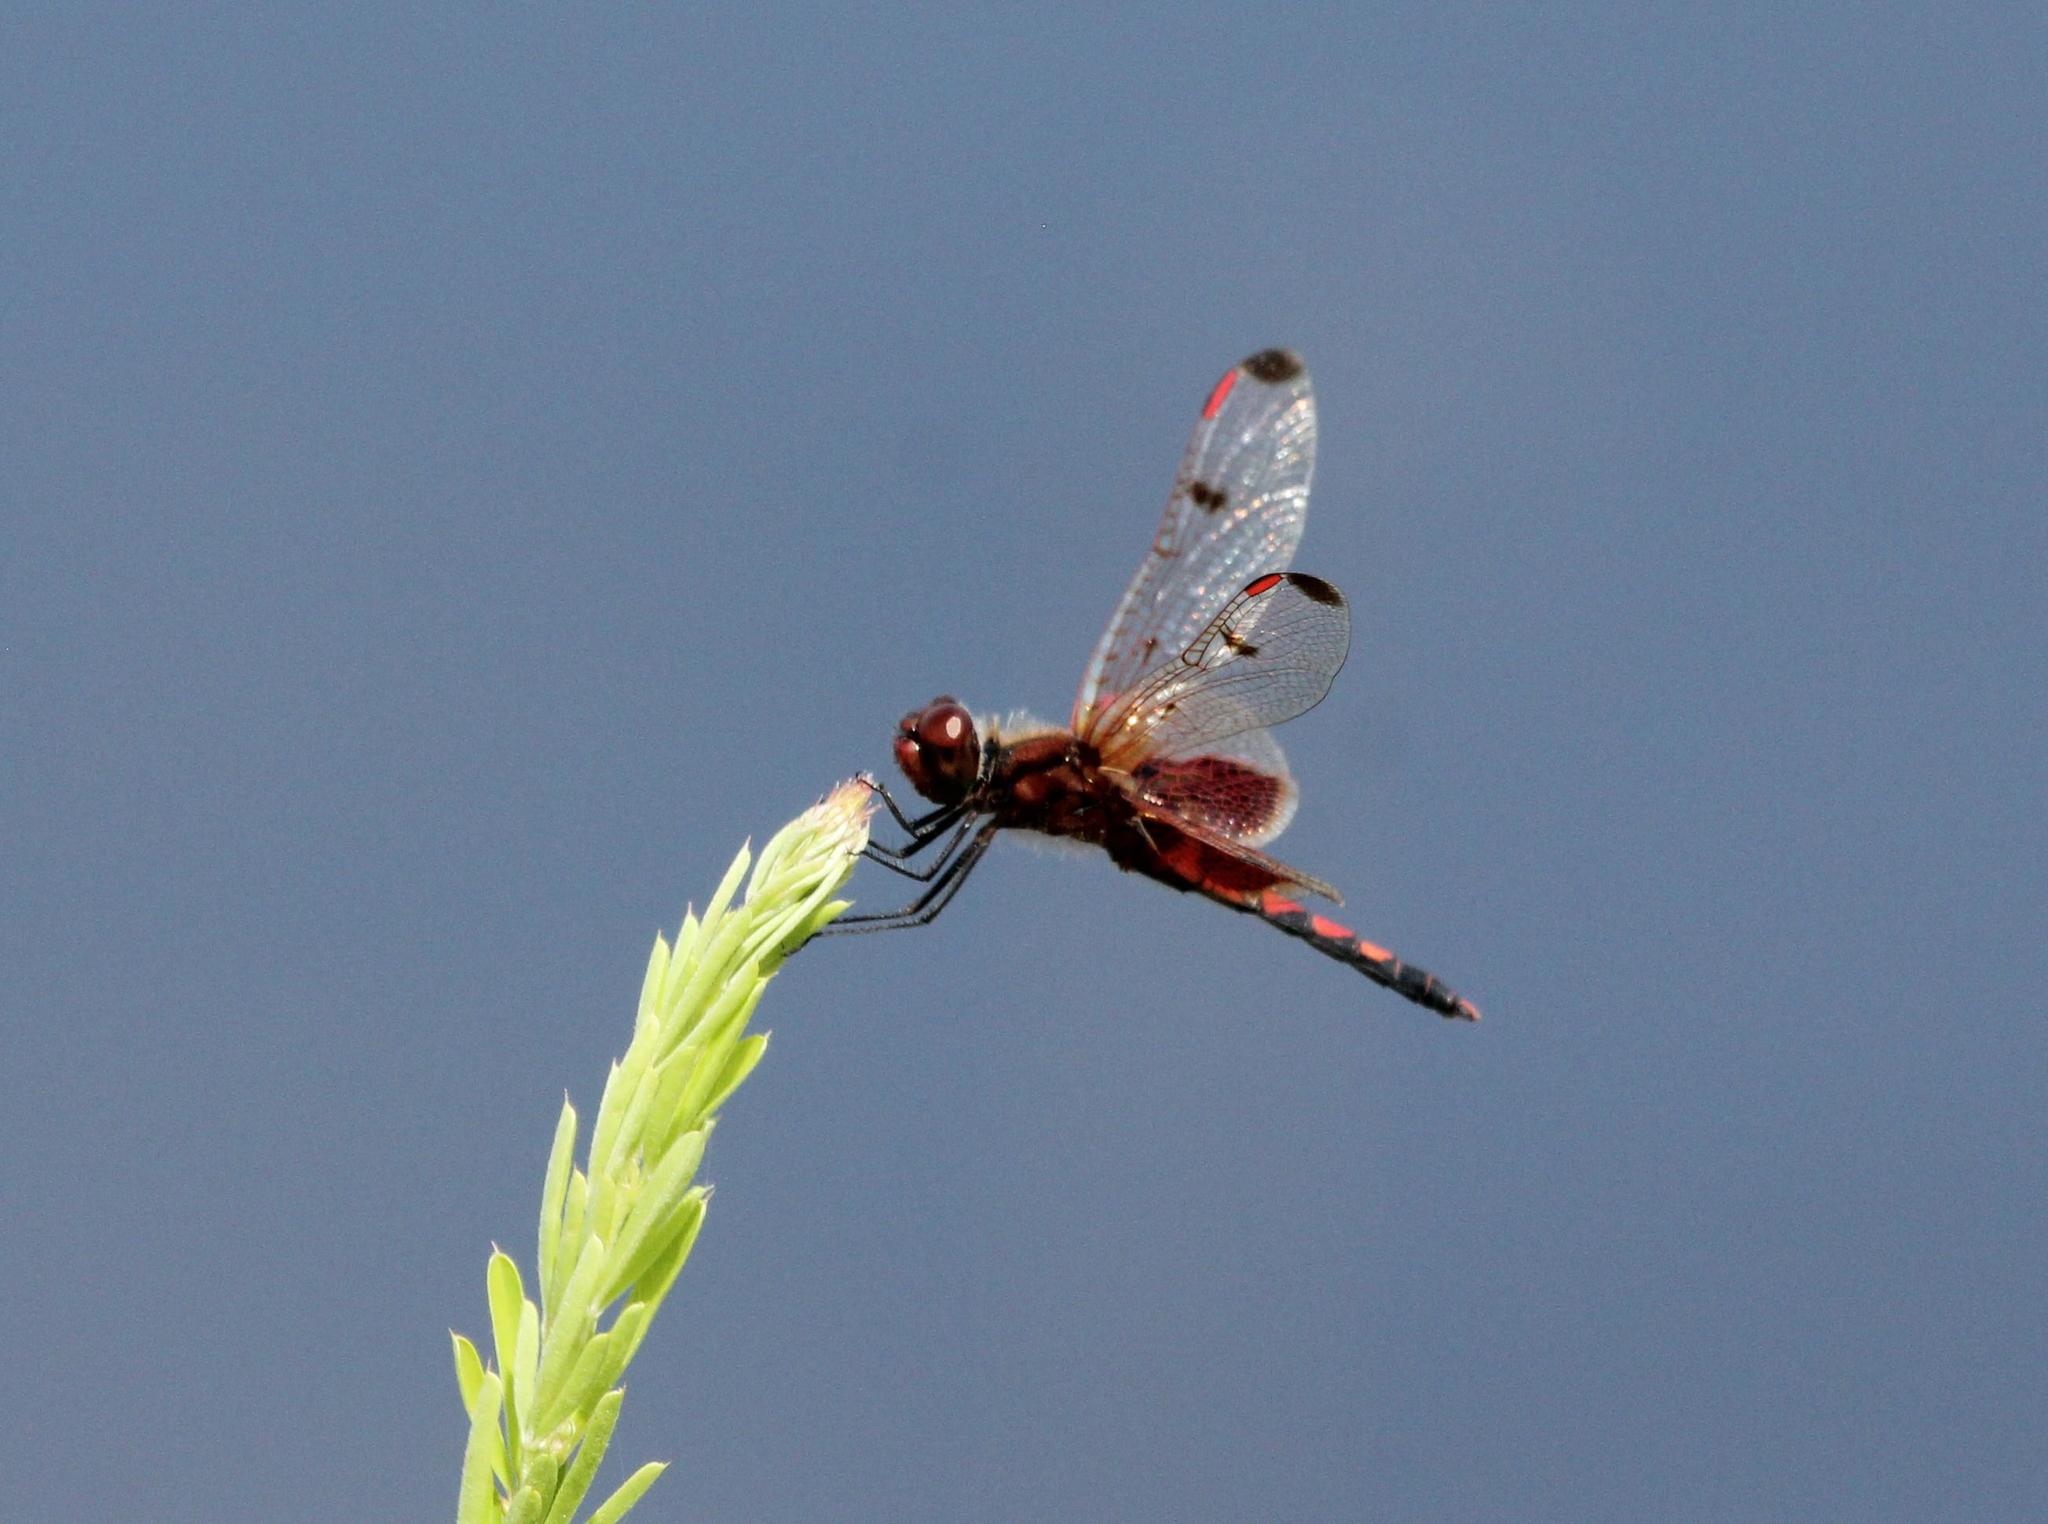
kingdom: Animalia
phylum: Arthropoda
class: Insecta
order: Odonata
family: Libellulidae
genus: Celithemis
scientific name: Celithemis elisa
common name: Calico pennant
